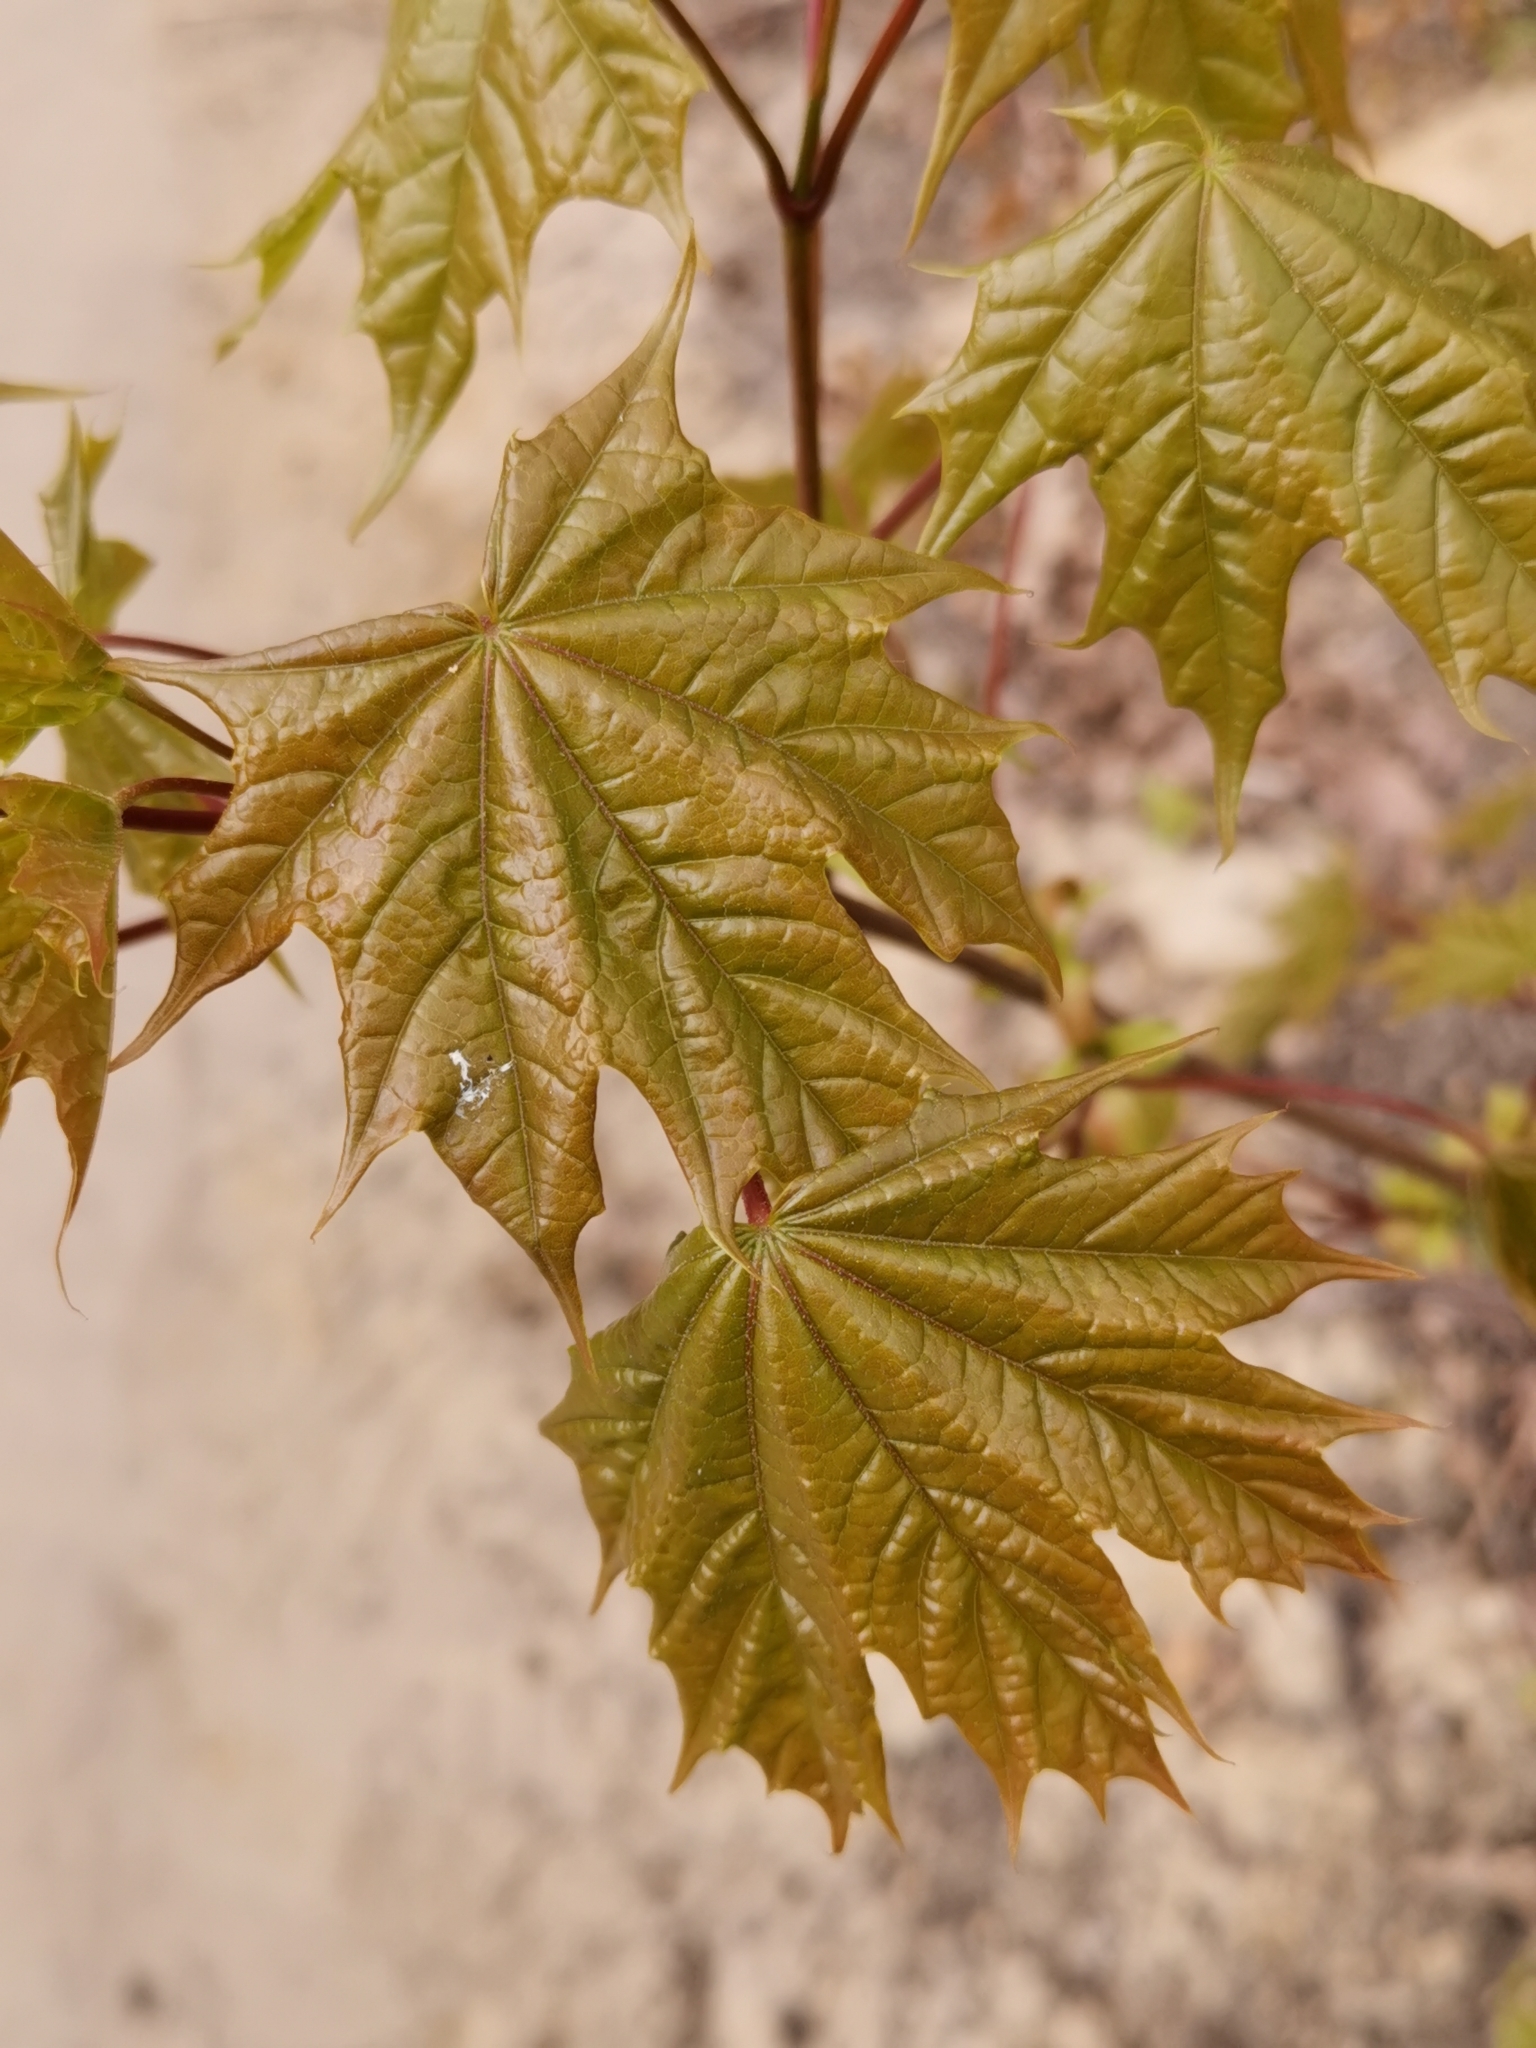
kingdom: Plantae
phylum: Tracheophyta
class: Magnoliopsida
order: Sapindales
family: Sapindaceae
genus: Acer
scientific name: Acer platanoides
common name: Norway maple
